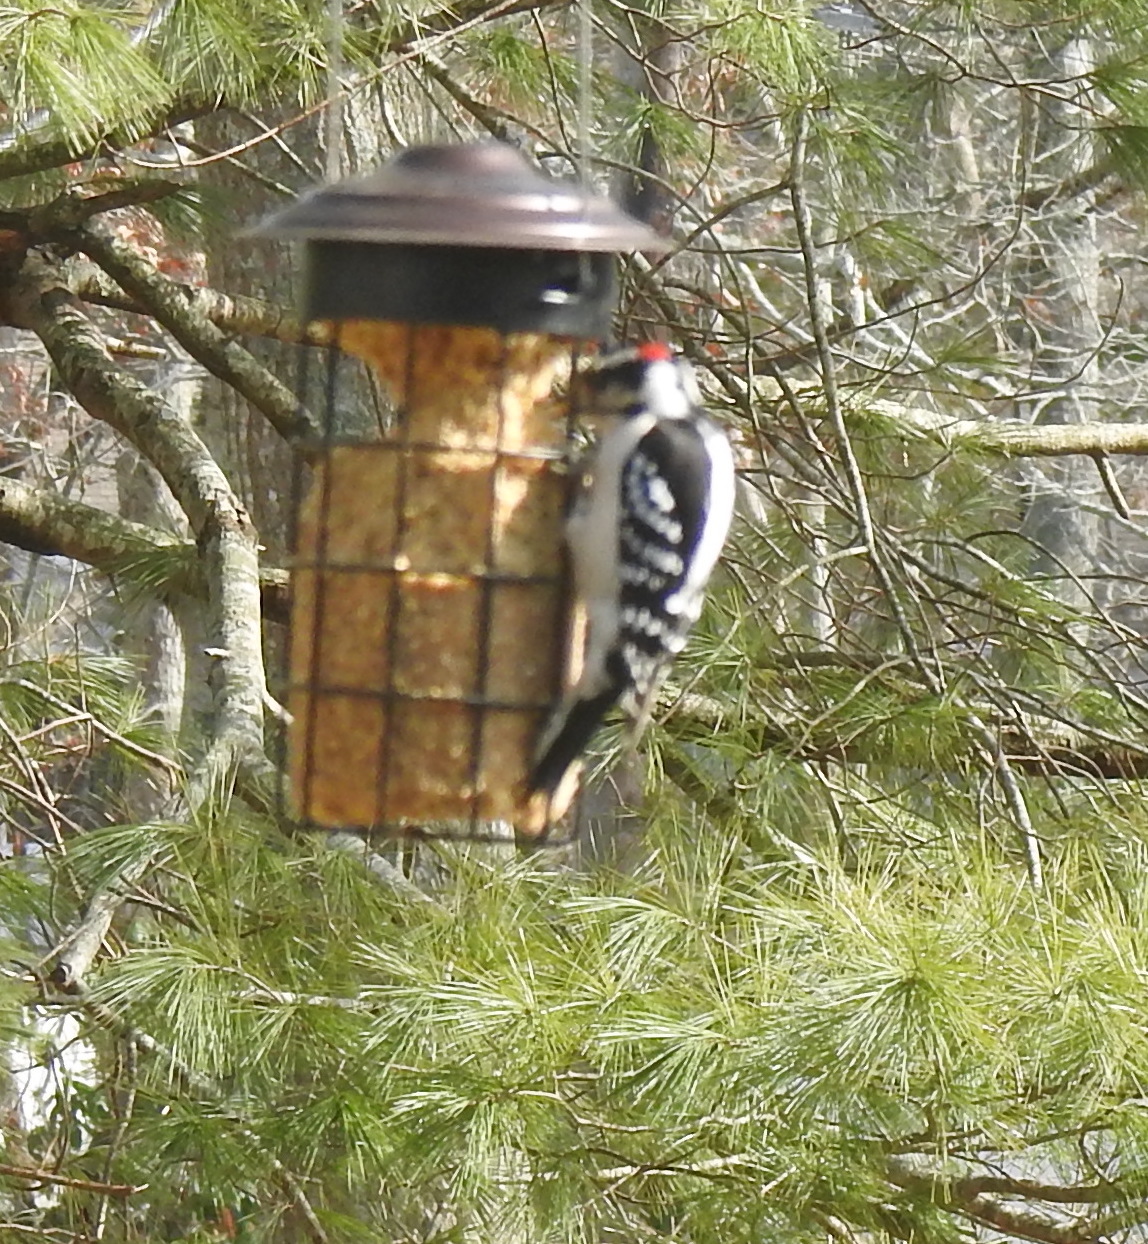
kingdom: Animalia
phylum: Chordata
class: Aves
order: Piciformes
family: Picidae
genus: Dryobates
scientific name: Dryobates pubescens
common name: Downy woodpecker
